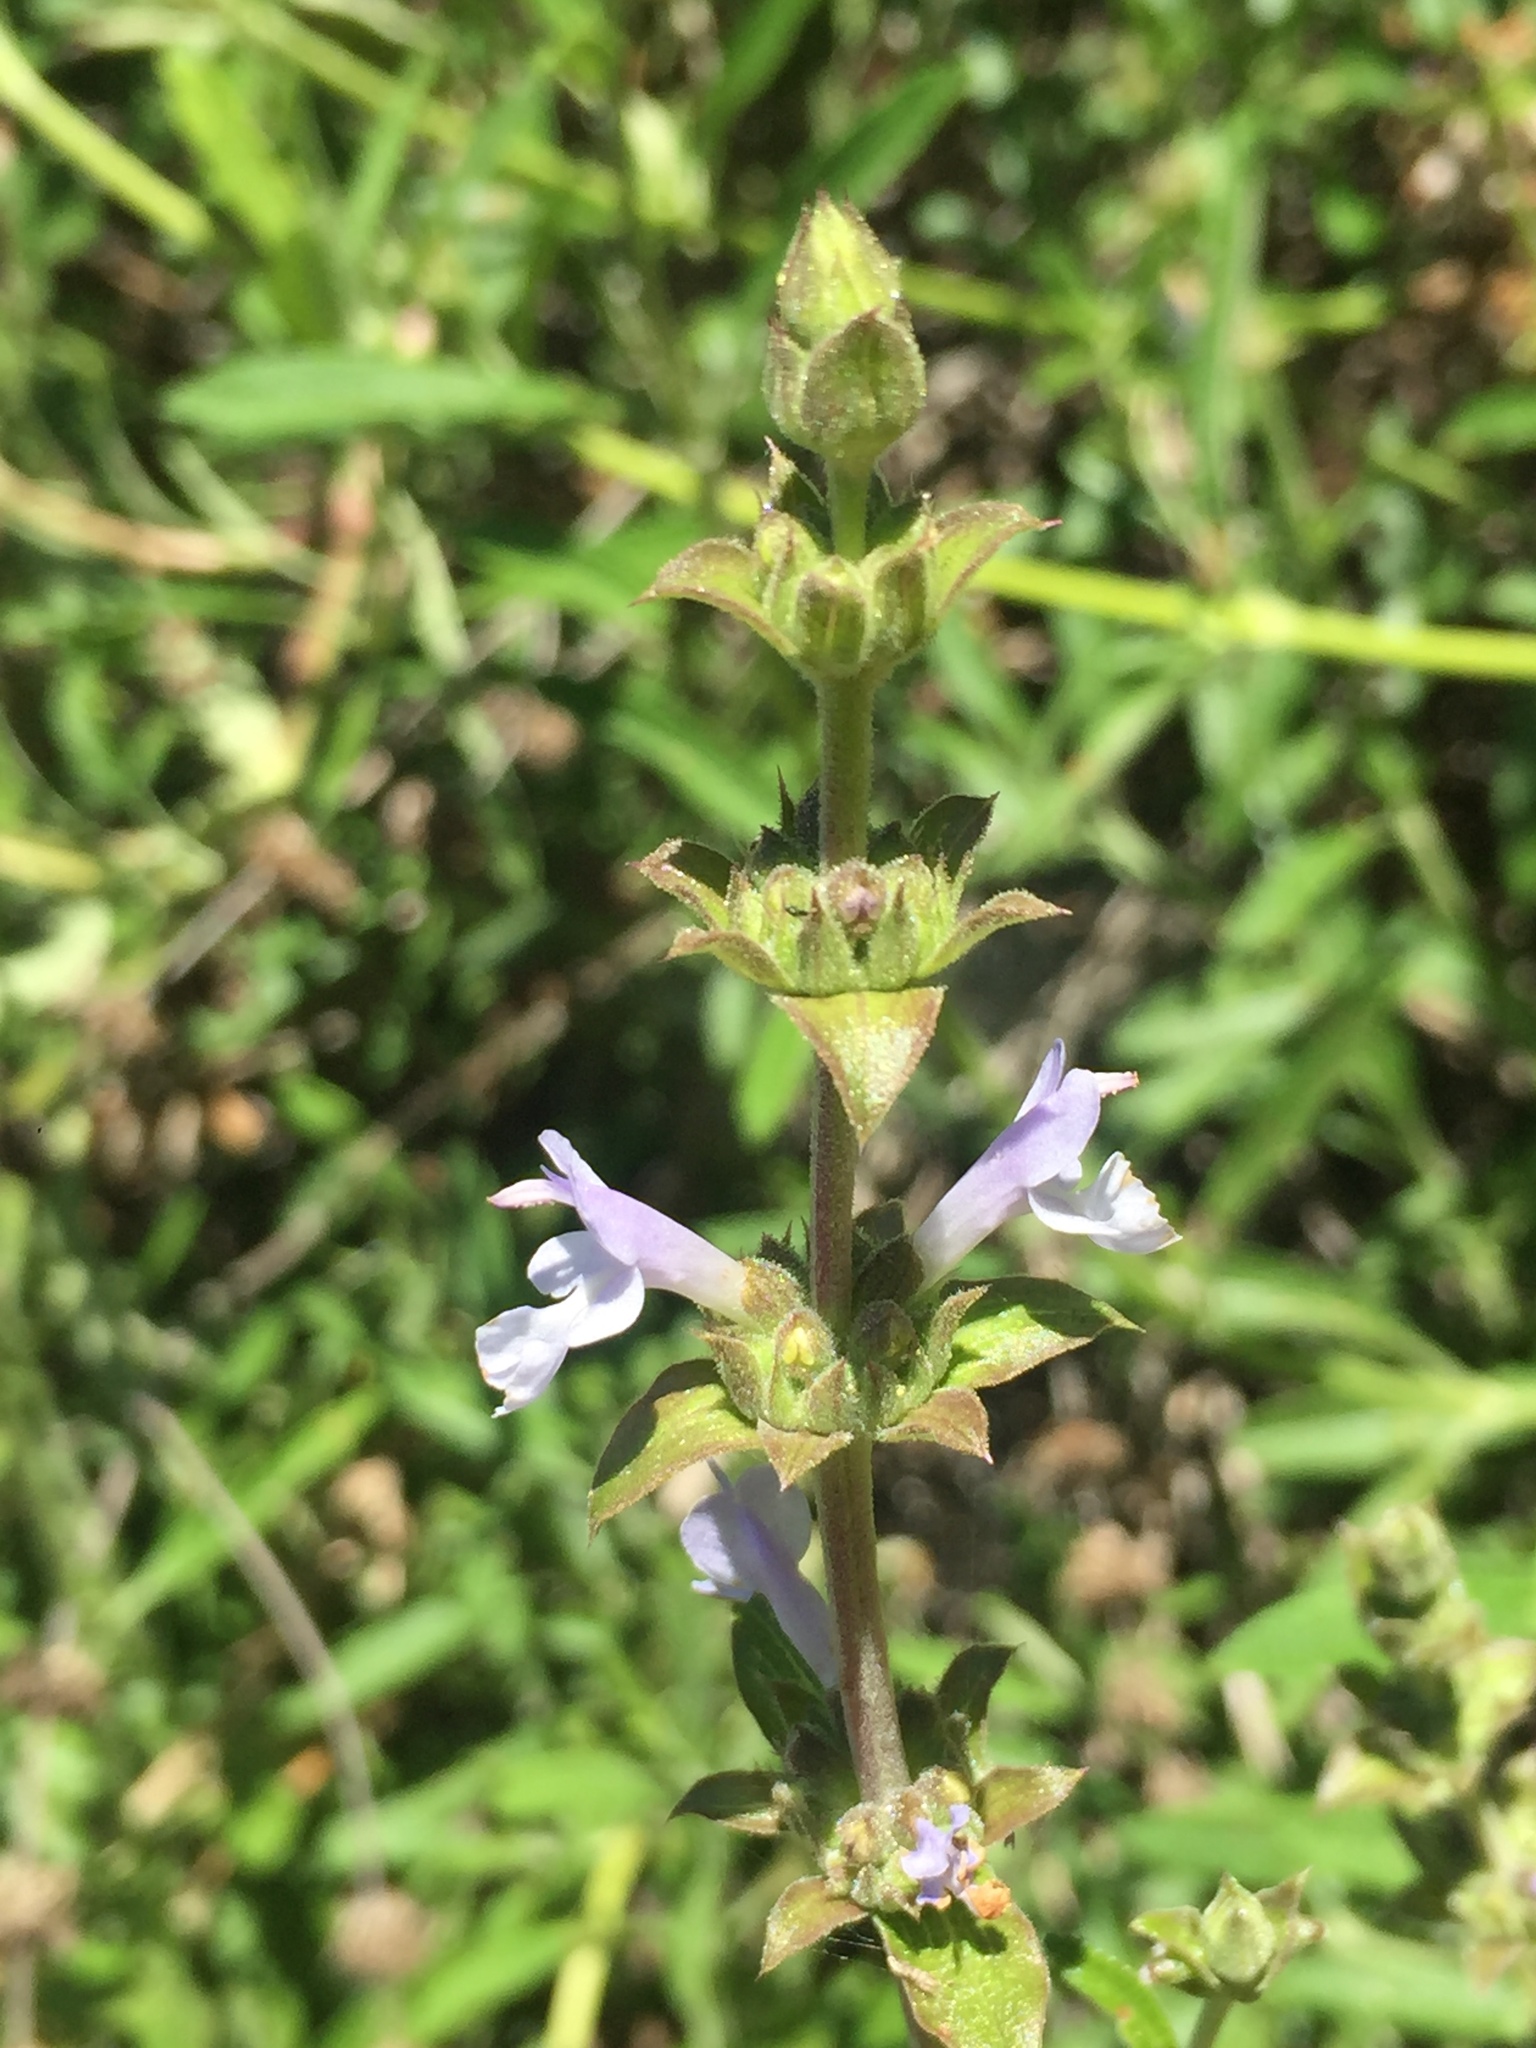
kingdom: Plantae
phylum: Tracheophyta
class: Magnoliopsida
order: Lamiales
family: Lamiaceae
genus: Salvia
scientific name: Salvia mellifera
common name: Black sage
